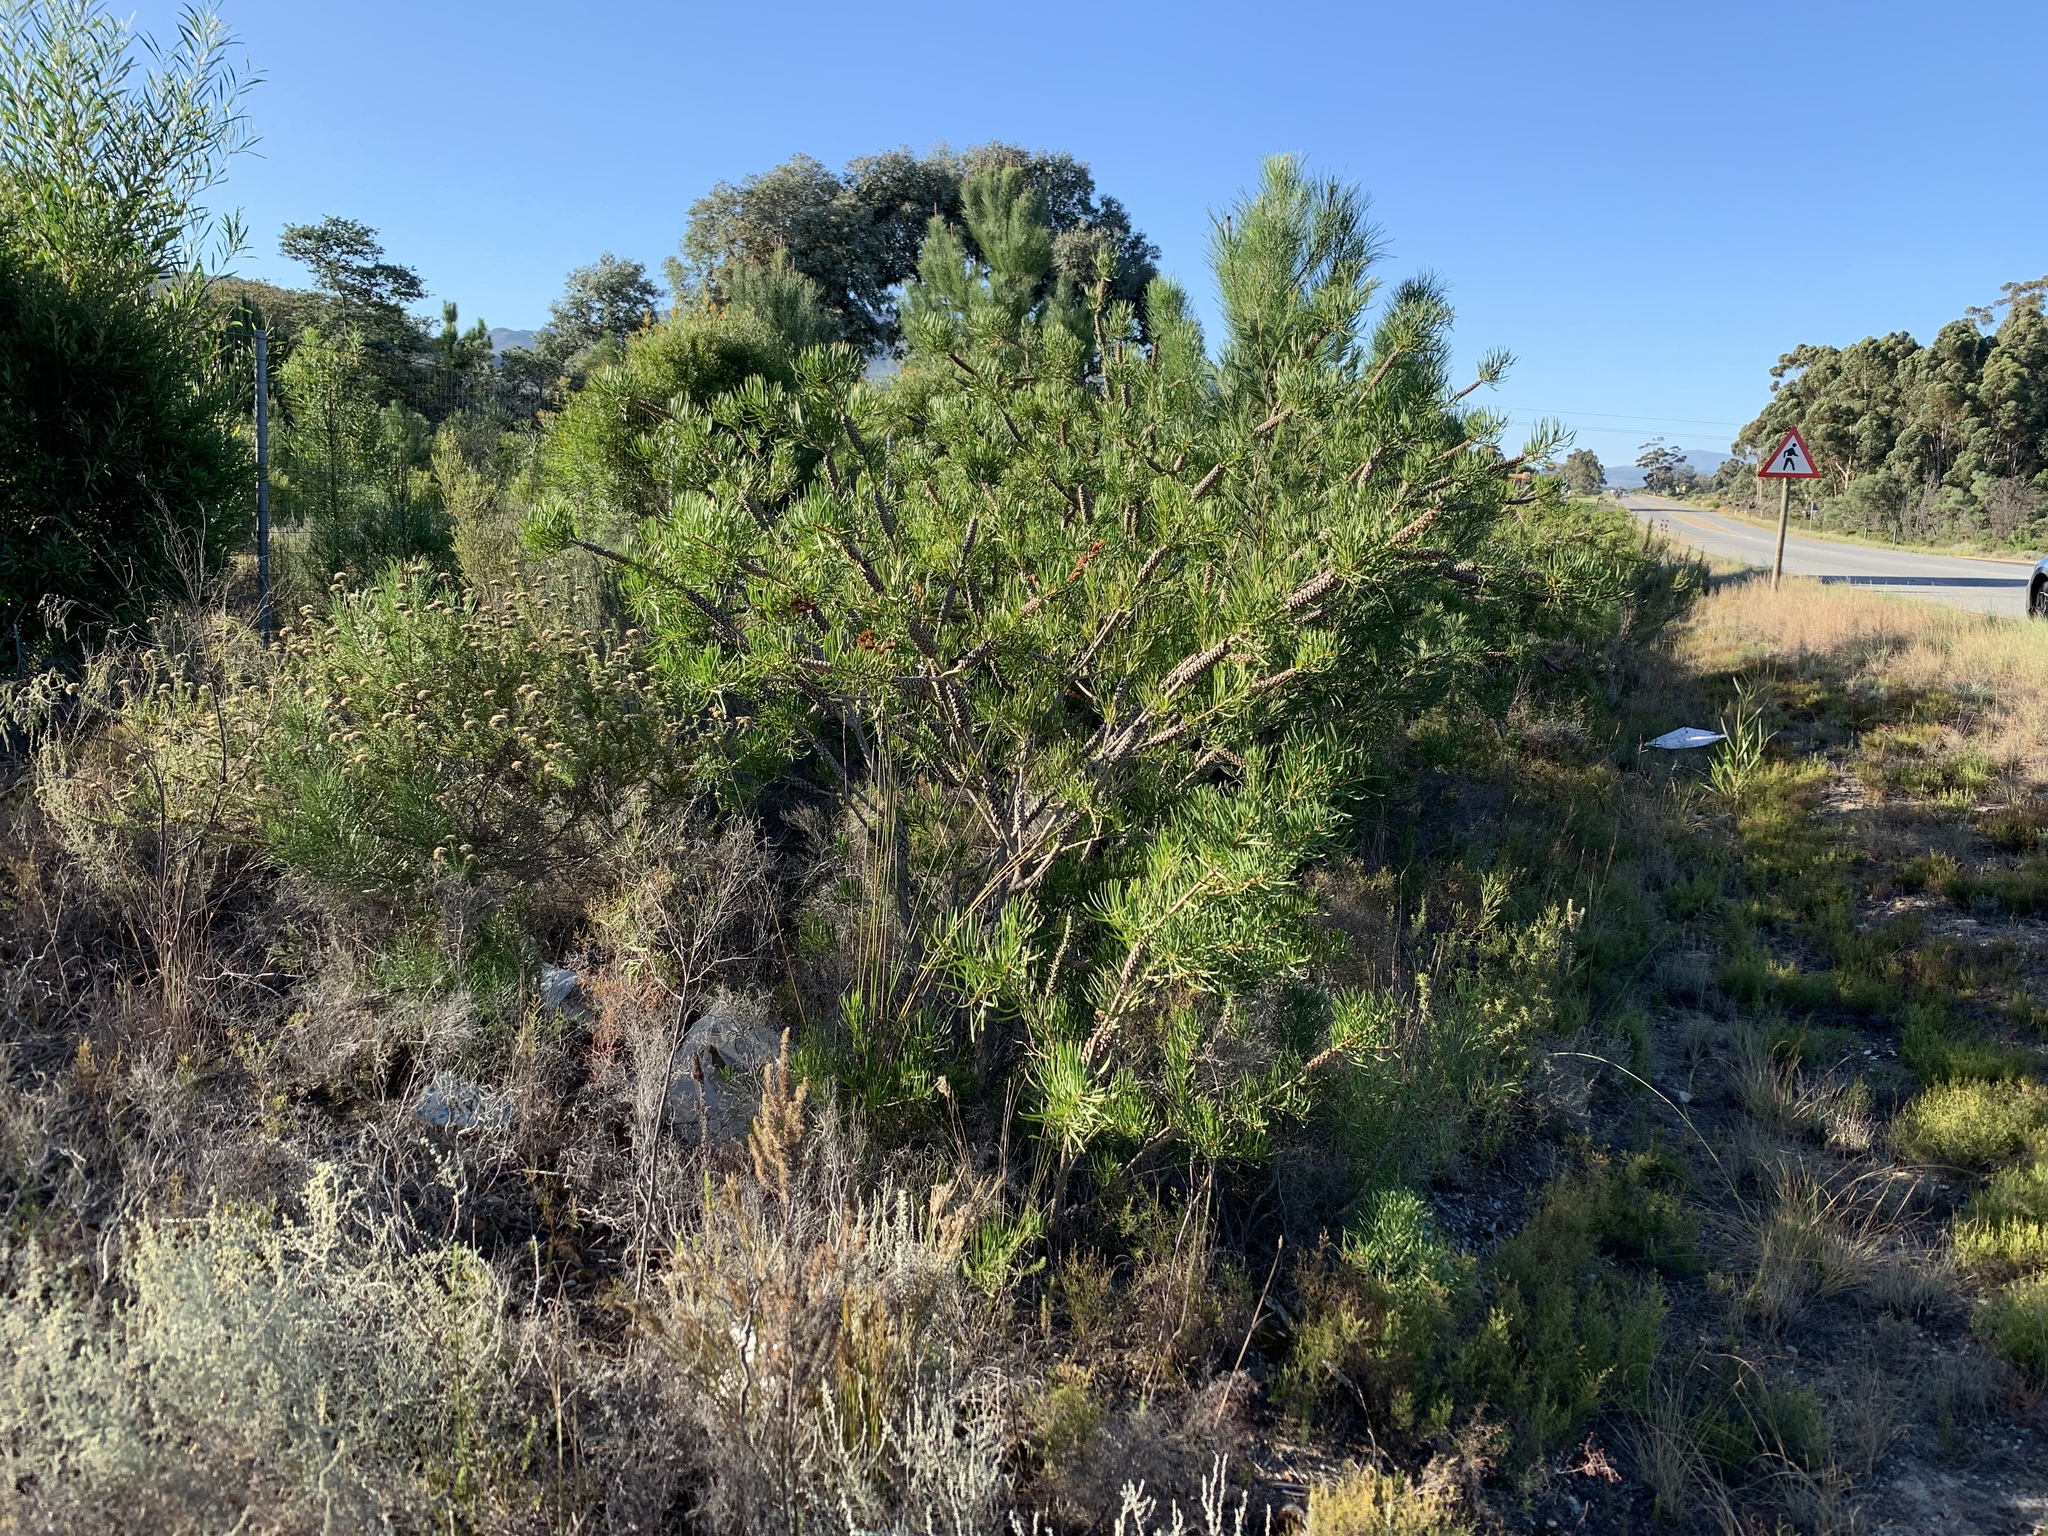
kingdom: Plantae
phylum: Tracheophyta
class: Magnoliopsida
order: Myrtales
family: Myrtaceae
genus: Callistemon
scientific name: Callistemon linearis
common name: Narrow-leaf bottlebrush
